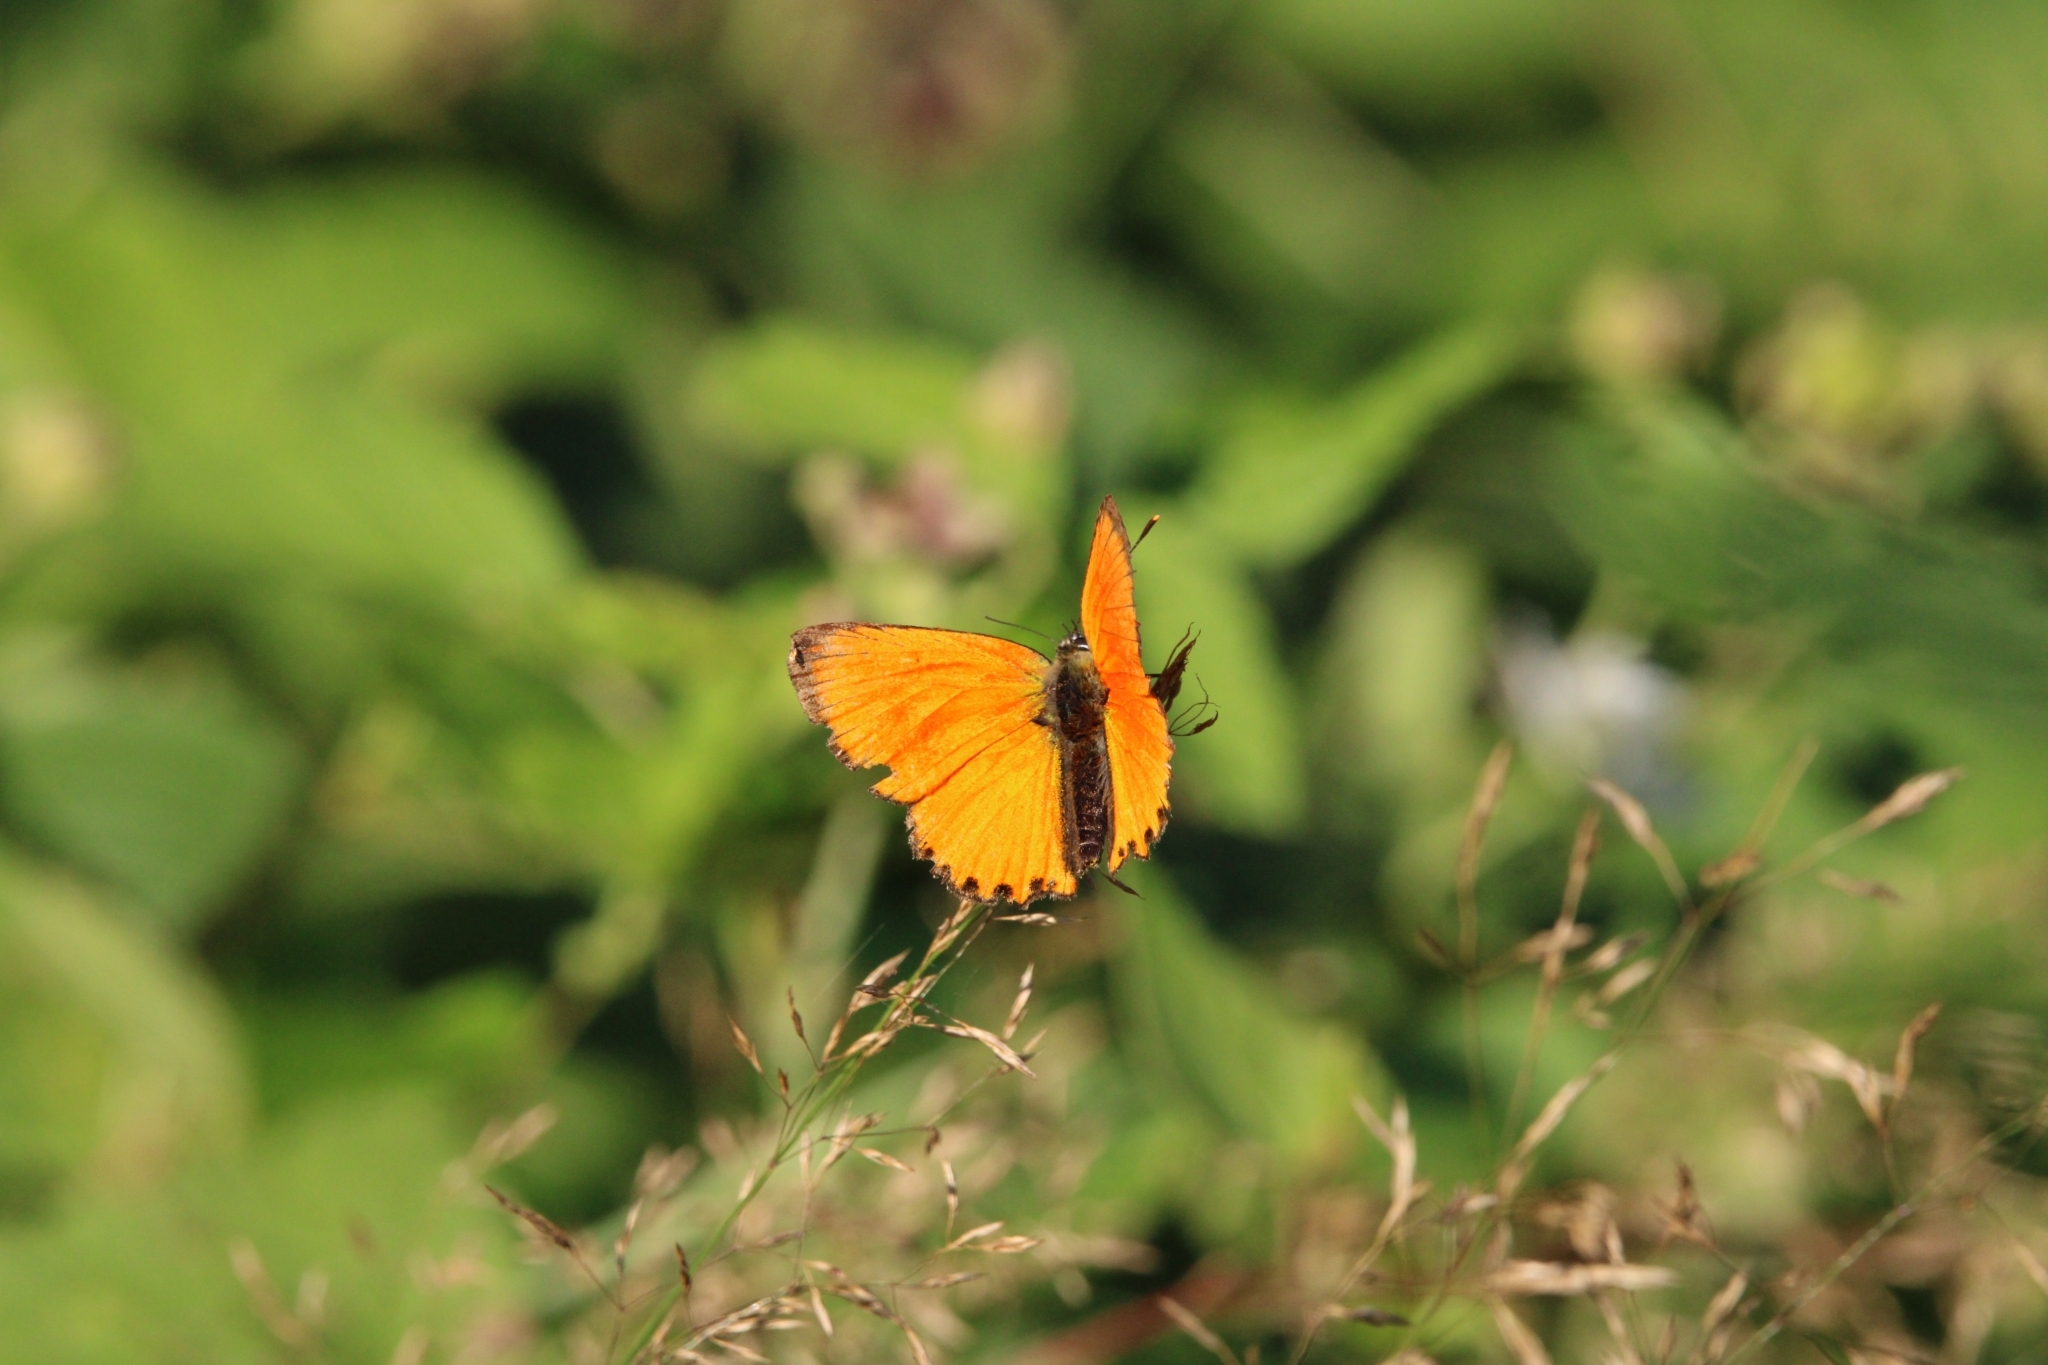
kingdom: Animalia
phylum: Arthropoda
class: Insecta
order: Lepidoptera
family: Lycaenidae
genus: Lycaena
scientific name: Lycaena virgaureae
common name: Scarce copper
